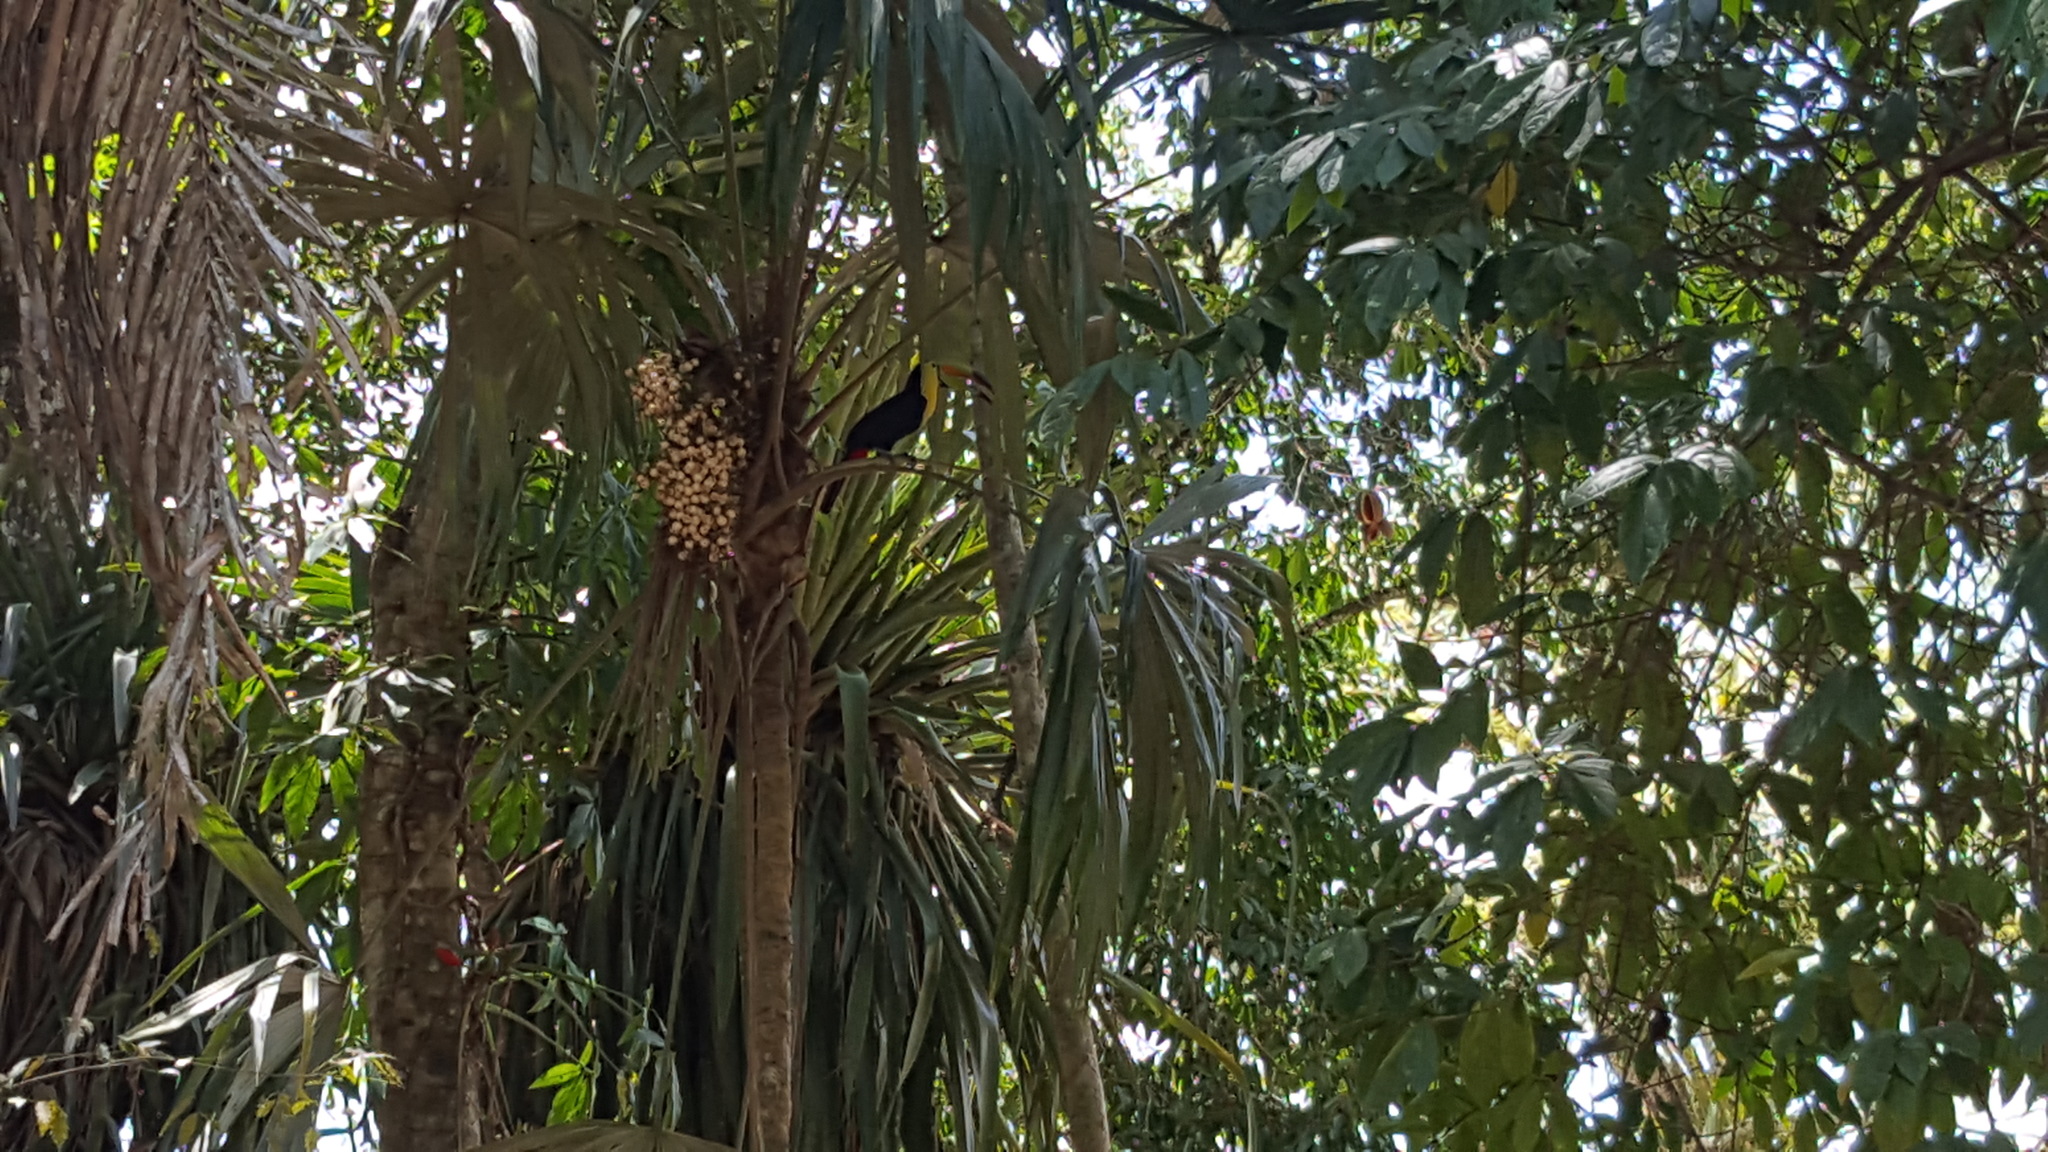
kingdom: Animalia
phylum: Chordata
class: Aves
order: Piciformes
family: Ramphastidae
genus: Ramphastos
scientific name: Ramphastos sulfuratus
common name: Keel-billed toucan
